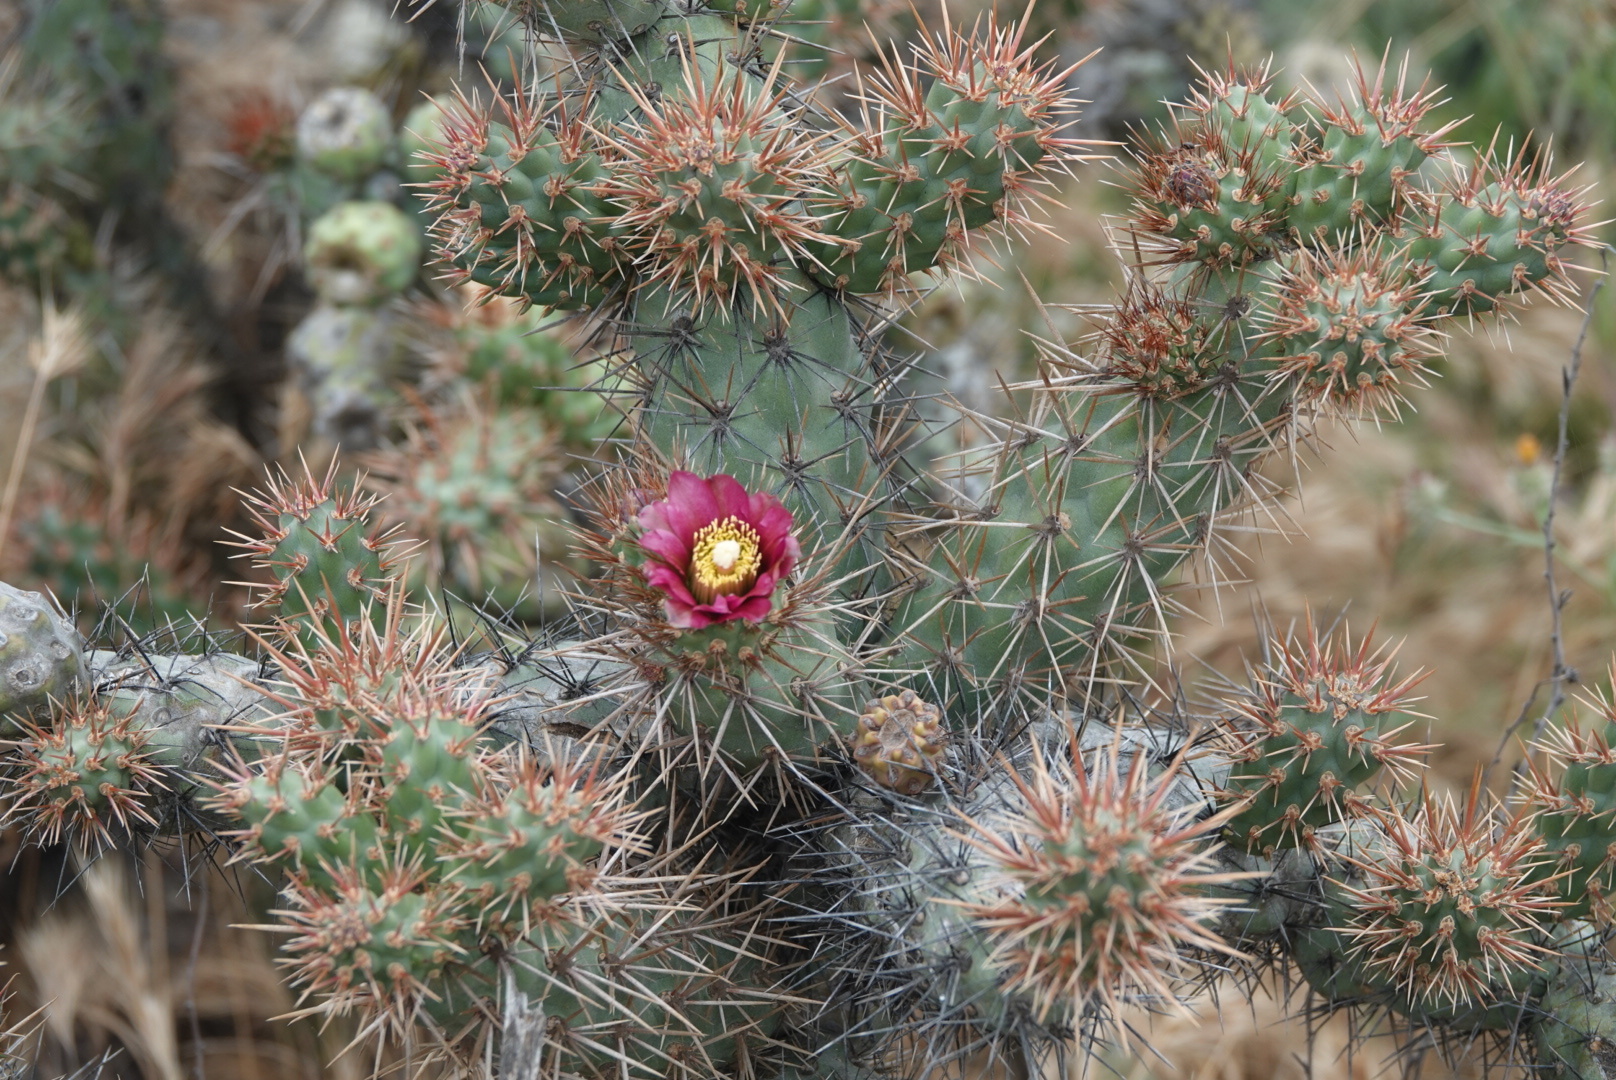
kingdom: Plantae
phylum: Tracheophyta
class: Magnoliopsida
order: Caryophyllales
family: Cactaceae
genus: Cylindropuntia
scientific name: Cylindropuntia prolifera
